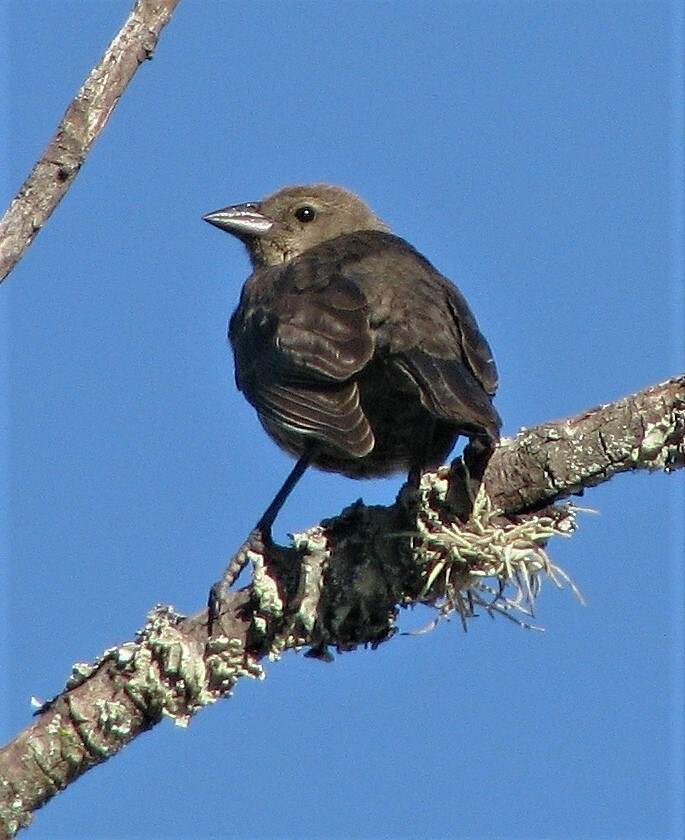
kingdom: Animalia
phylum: Chordata
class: Aves
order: Passeriformes
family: Icteridae
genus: Molothrus
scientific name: Molothrus bonariensis
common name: Shiny cowbird
